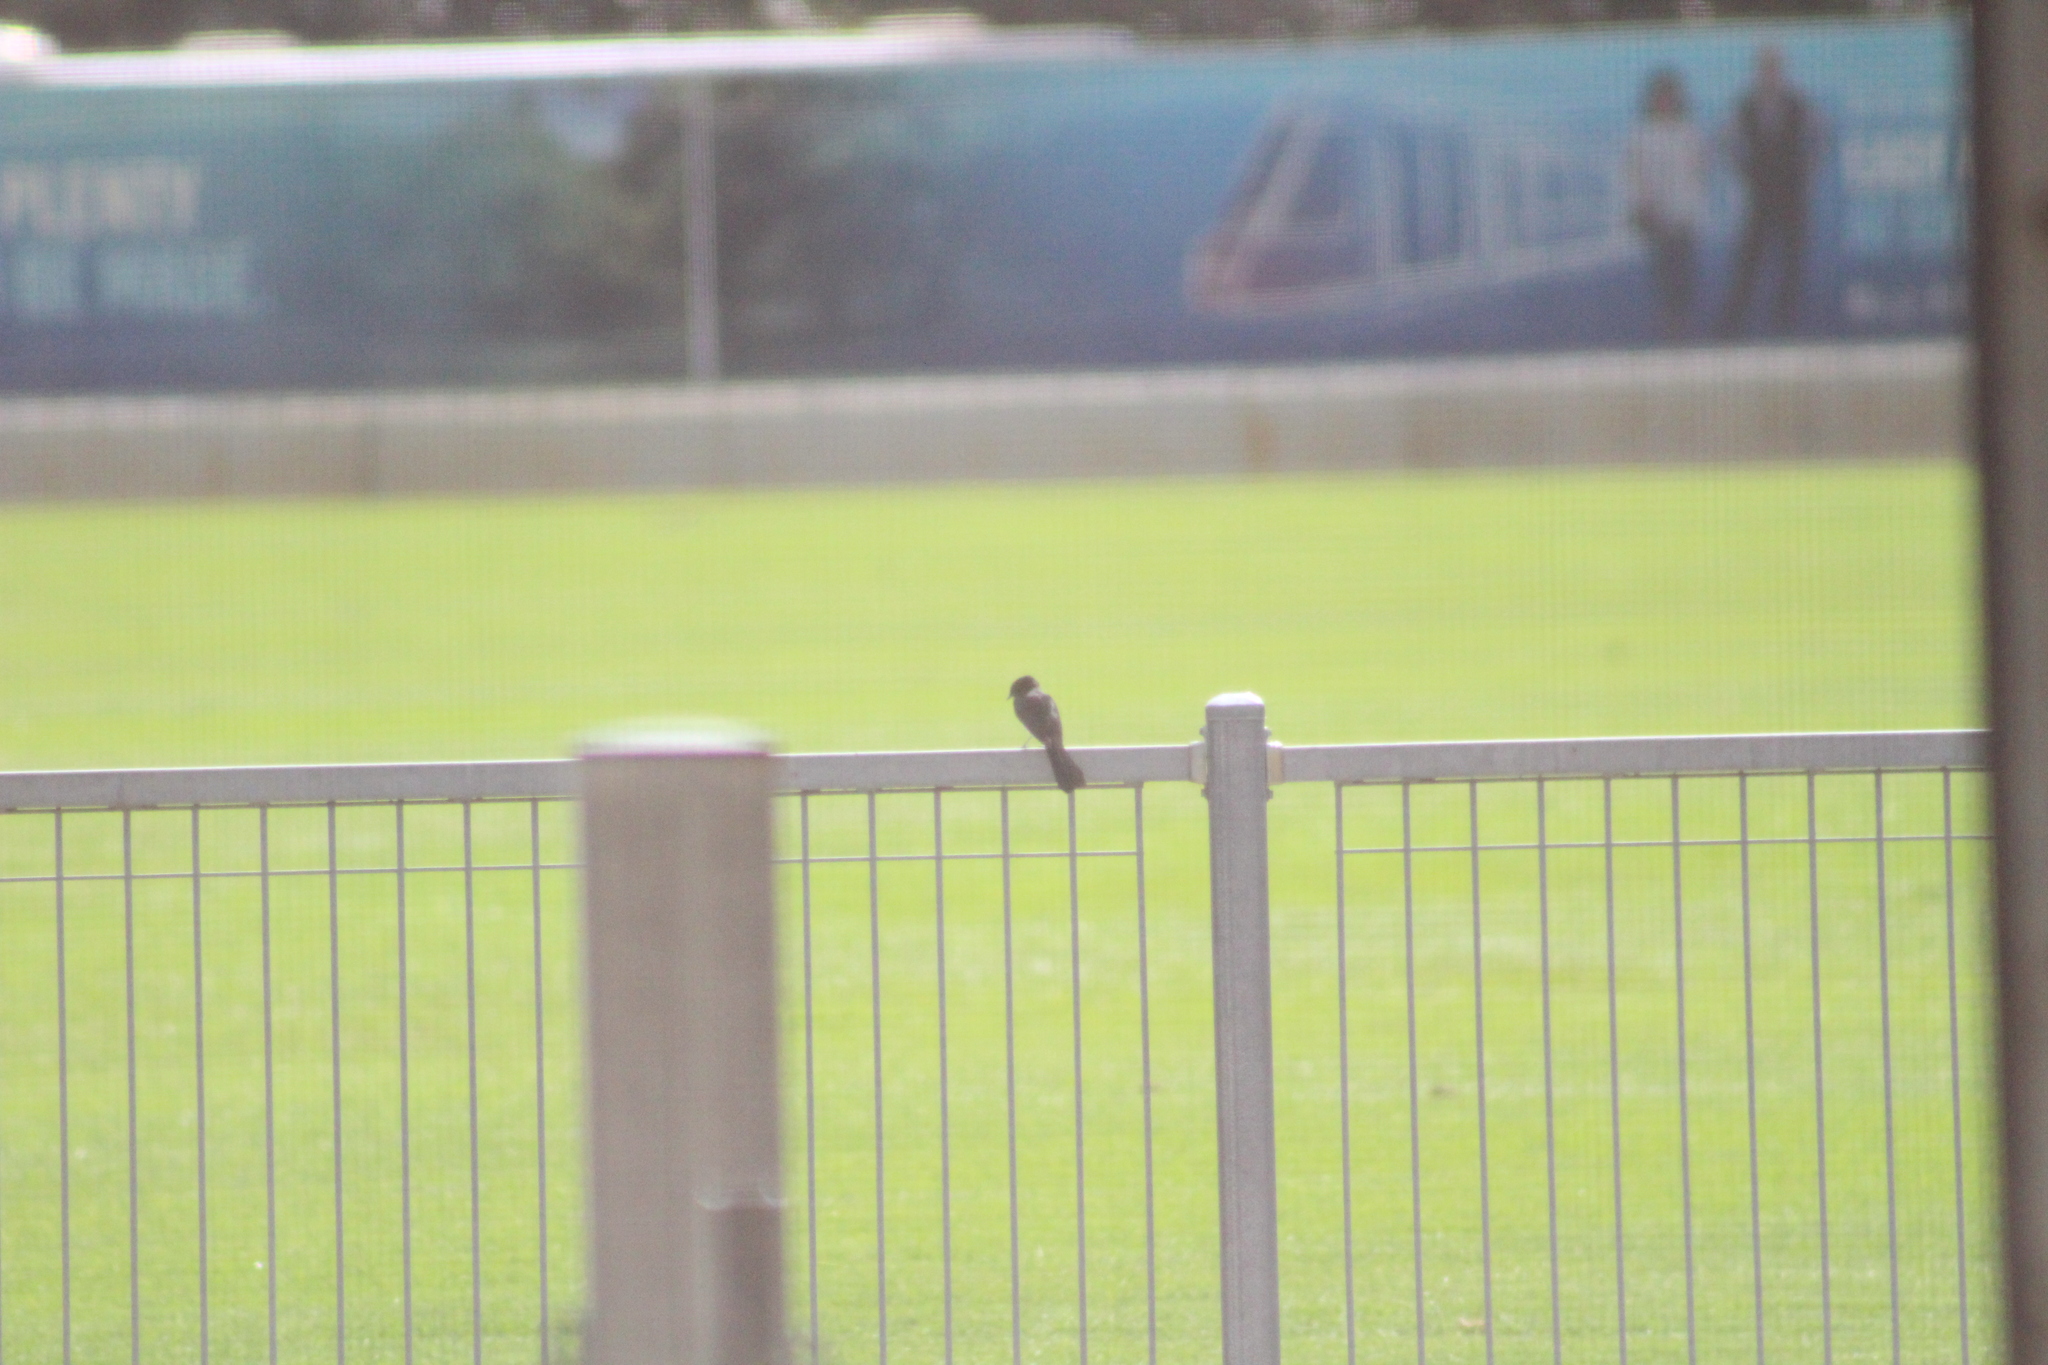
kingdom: Animalia
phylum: Chordata
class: Aves
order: Passeriformes
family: Rhipiduridae
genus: Rhipidura
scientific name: Rhipidura leucophrys
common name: Willie wagtail
